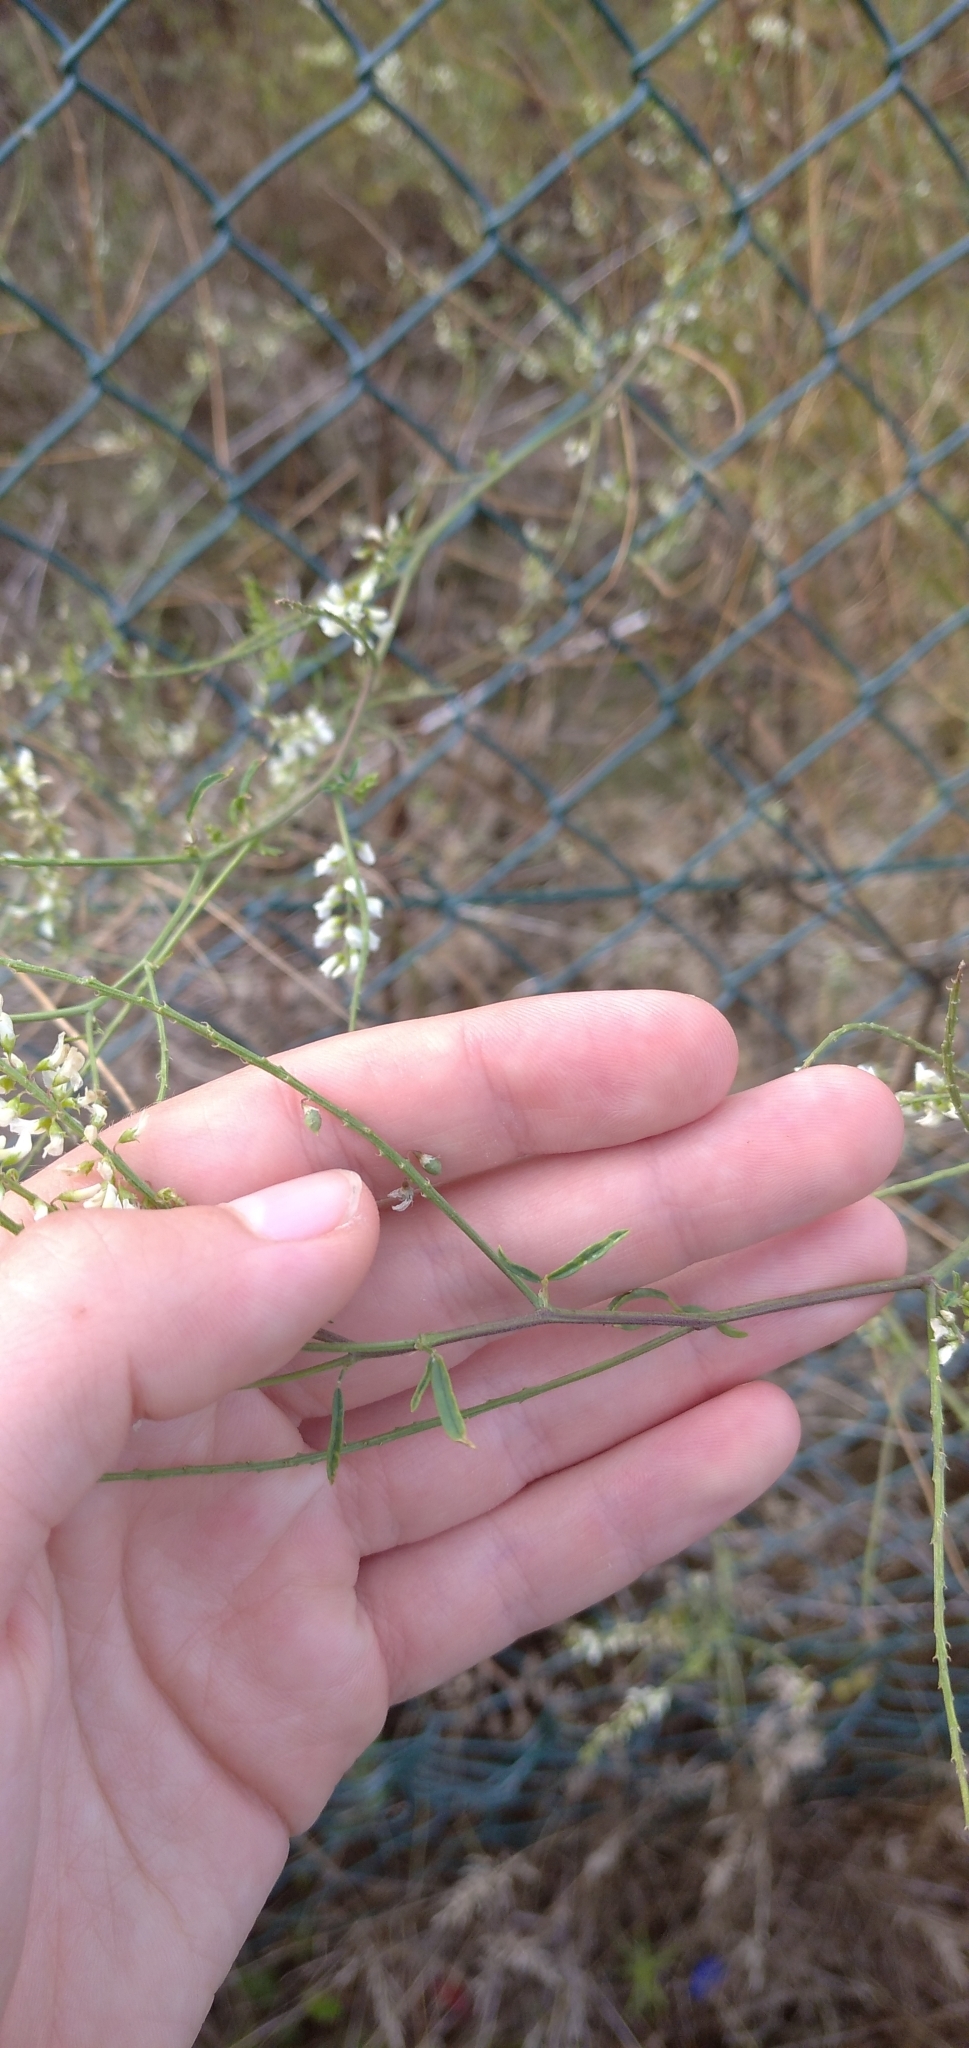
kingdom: Plantae
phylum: Tracheophyta
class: Magnoliopsida
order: Fabales
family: Fabaceae
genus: Melilotus
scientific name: Melilotus albus
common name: White melilot
